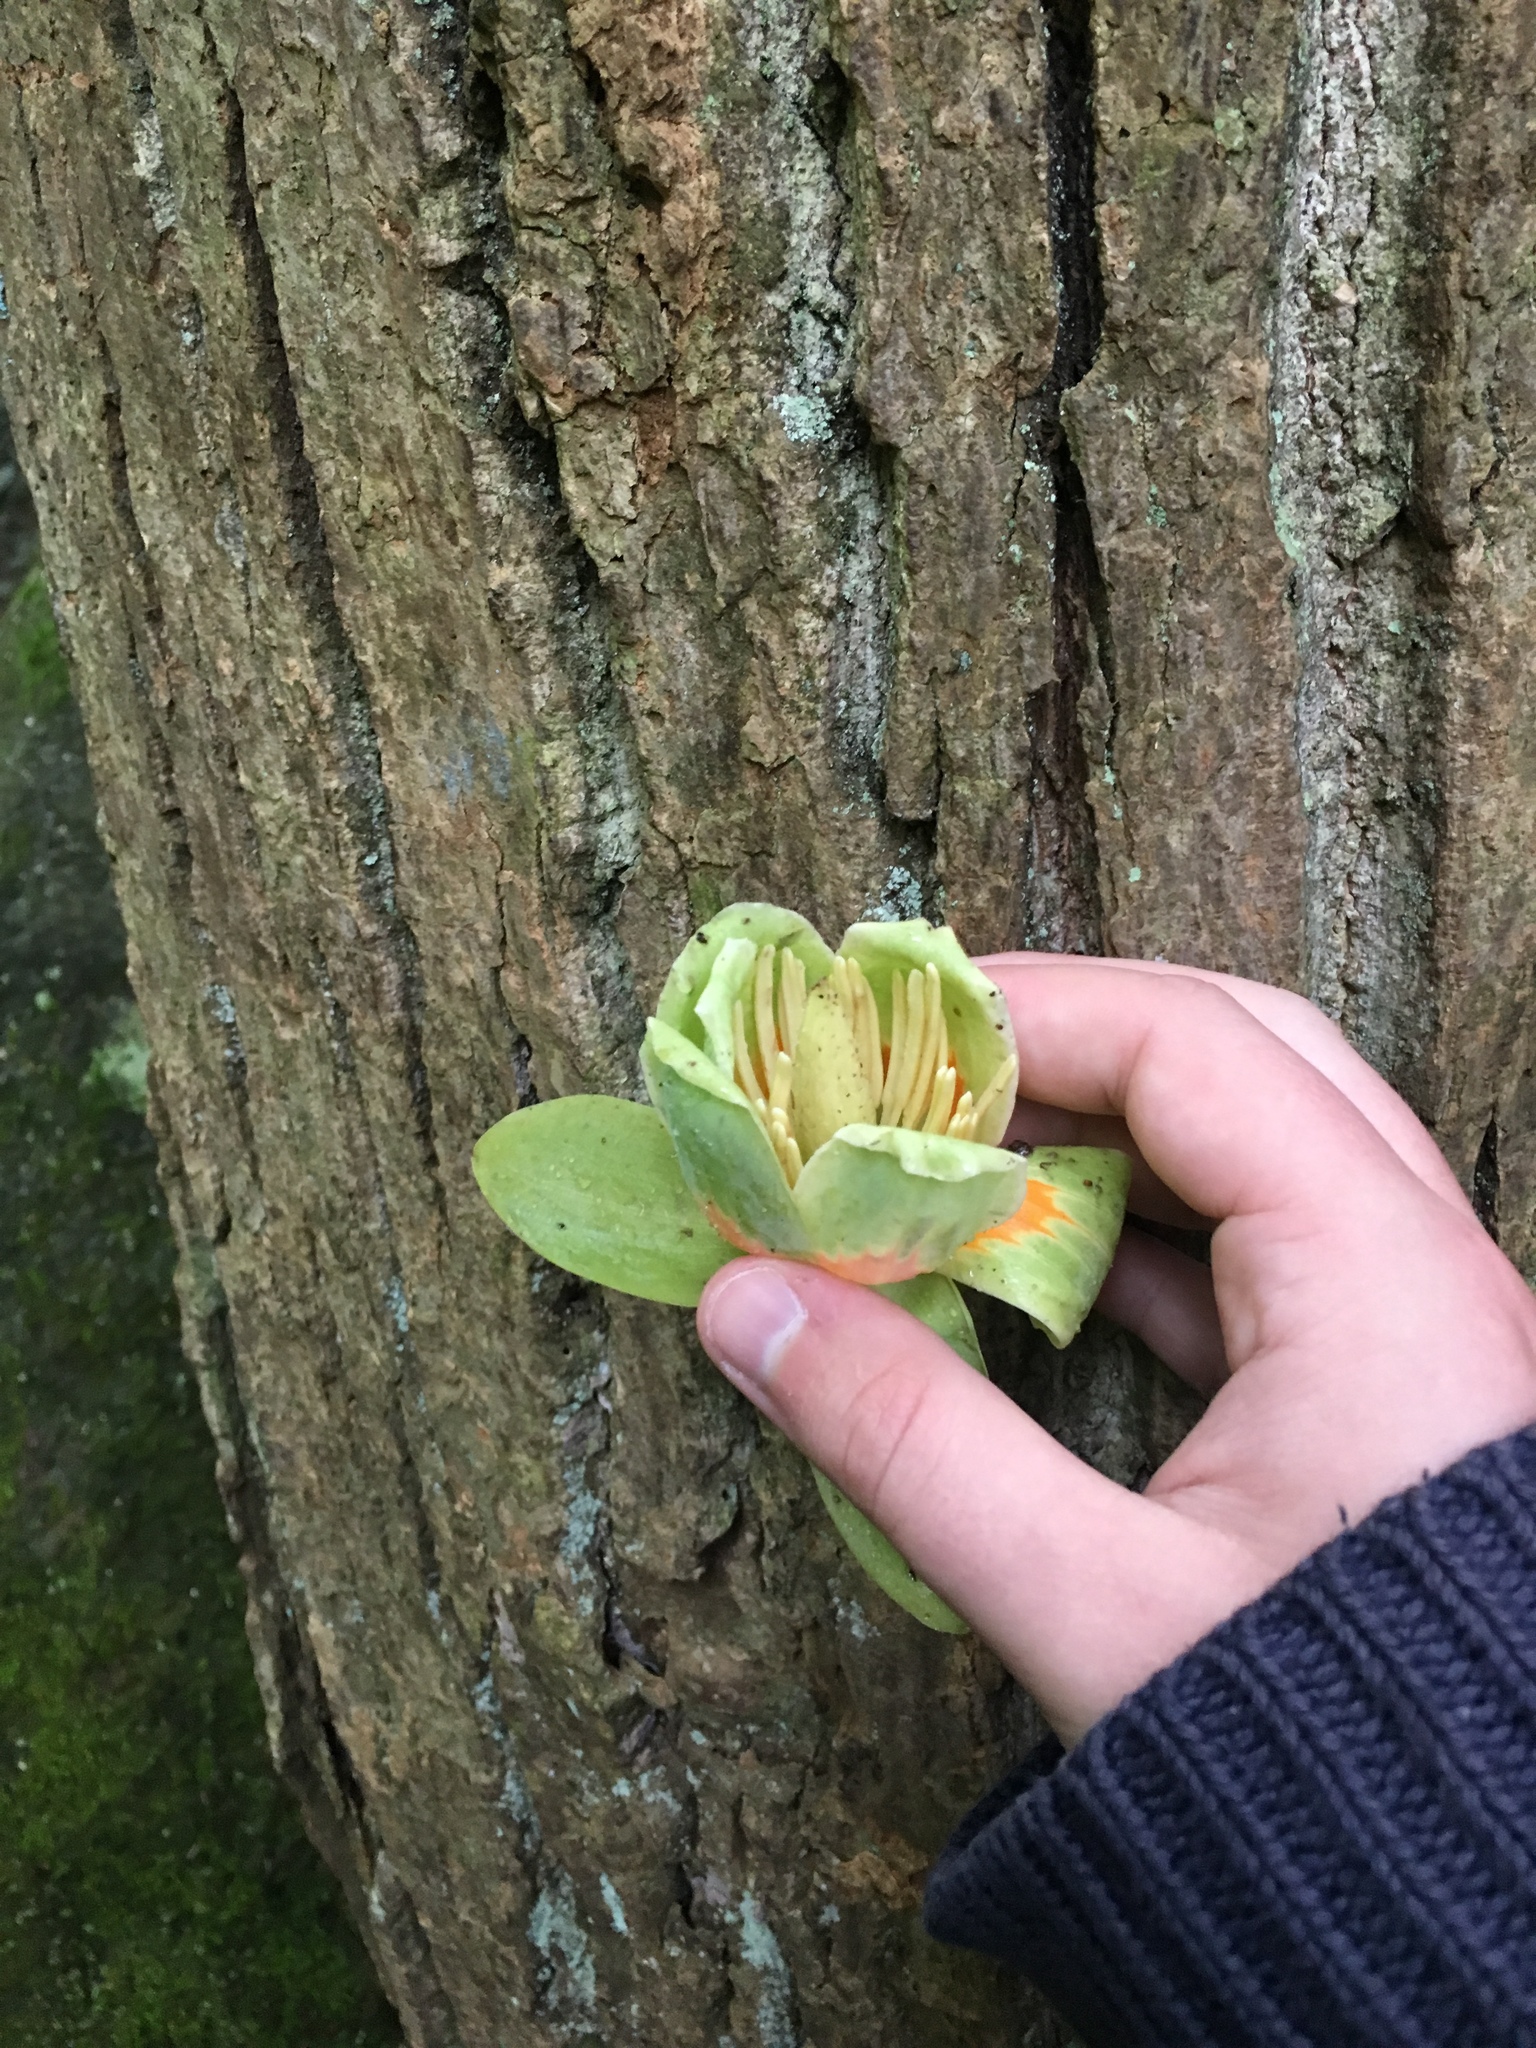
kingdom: Plantae
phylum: Tracheophyta
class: Magnoliopsida
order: Magnoliales
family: Magnoliaceae
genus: Liriodendron
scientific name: Liriodendron tulipifera
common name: Tulip tree
